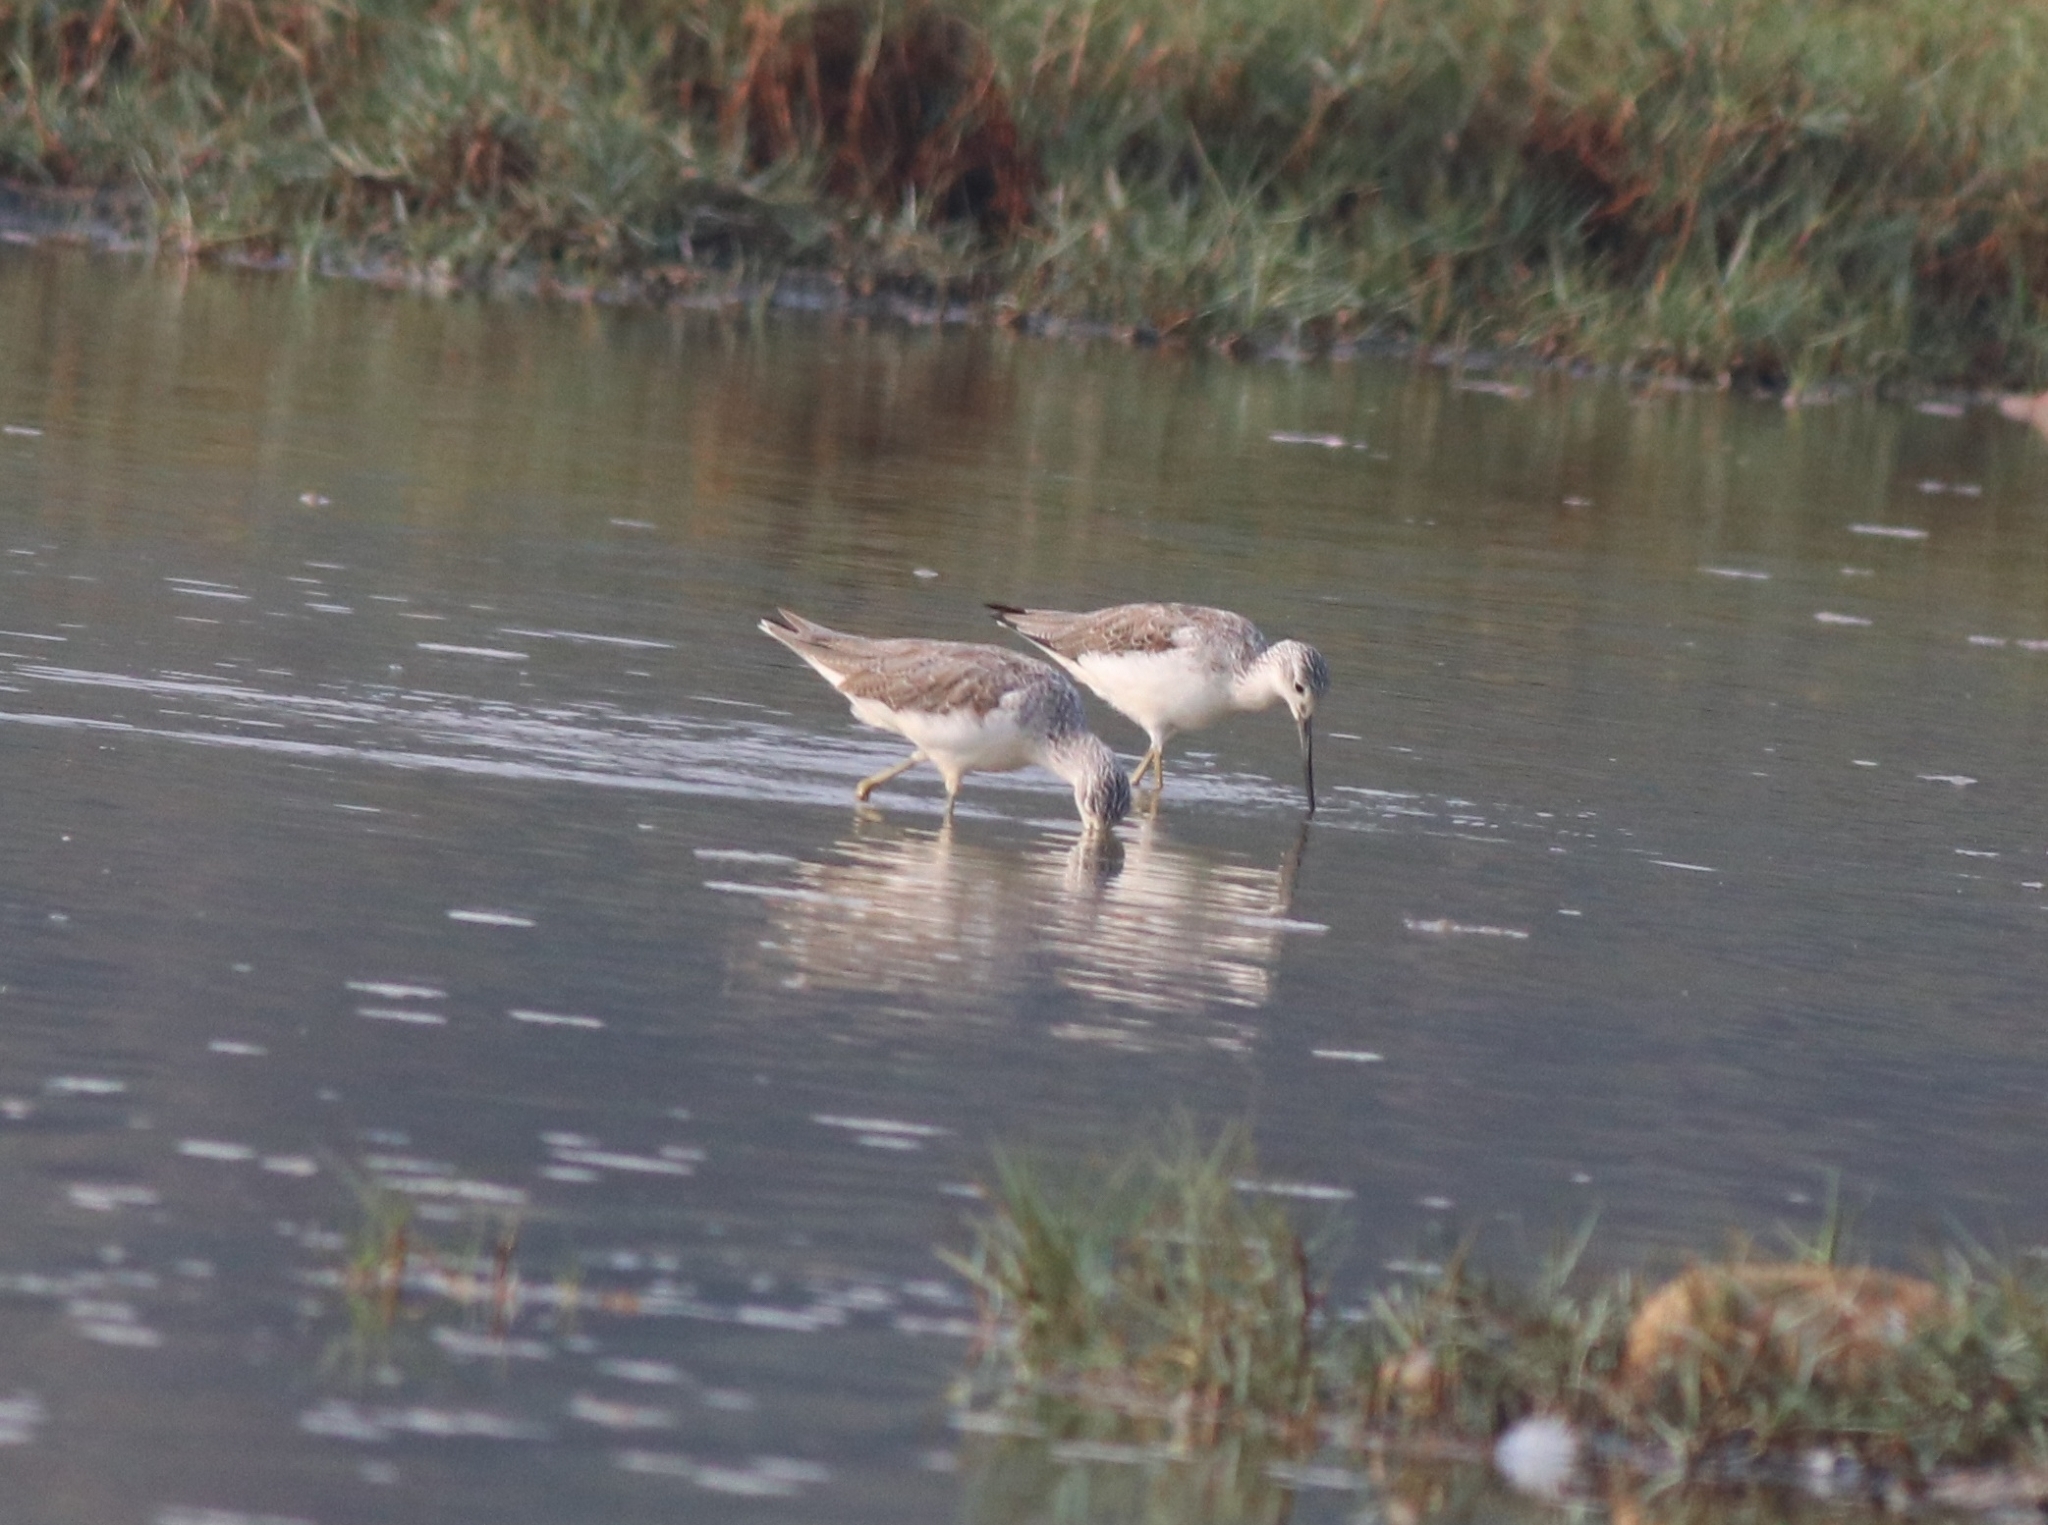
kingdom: Animalia
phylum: Chordata
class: Aves
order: Charadriiformes
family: Scolopacidae
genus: Tringa
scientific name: Tringa nebularia
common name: Common greenshank
